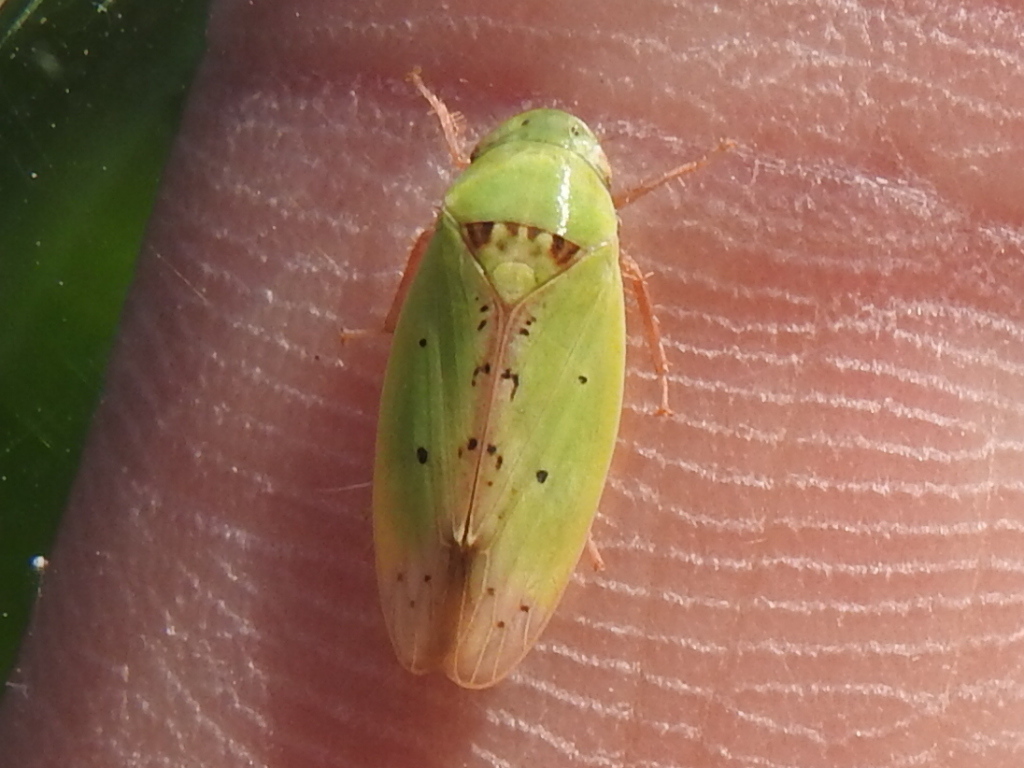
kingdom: Animalia
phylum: Arthropoda
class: Insecta
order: Hemiptera
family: Cicadellidae
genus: Ponana
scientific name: Ponana
